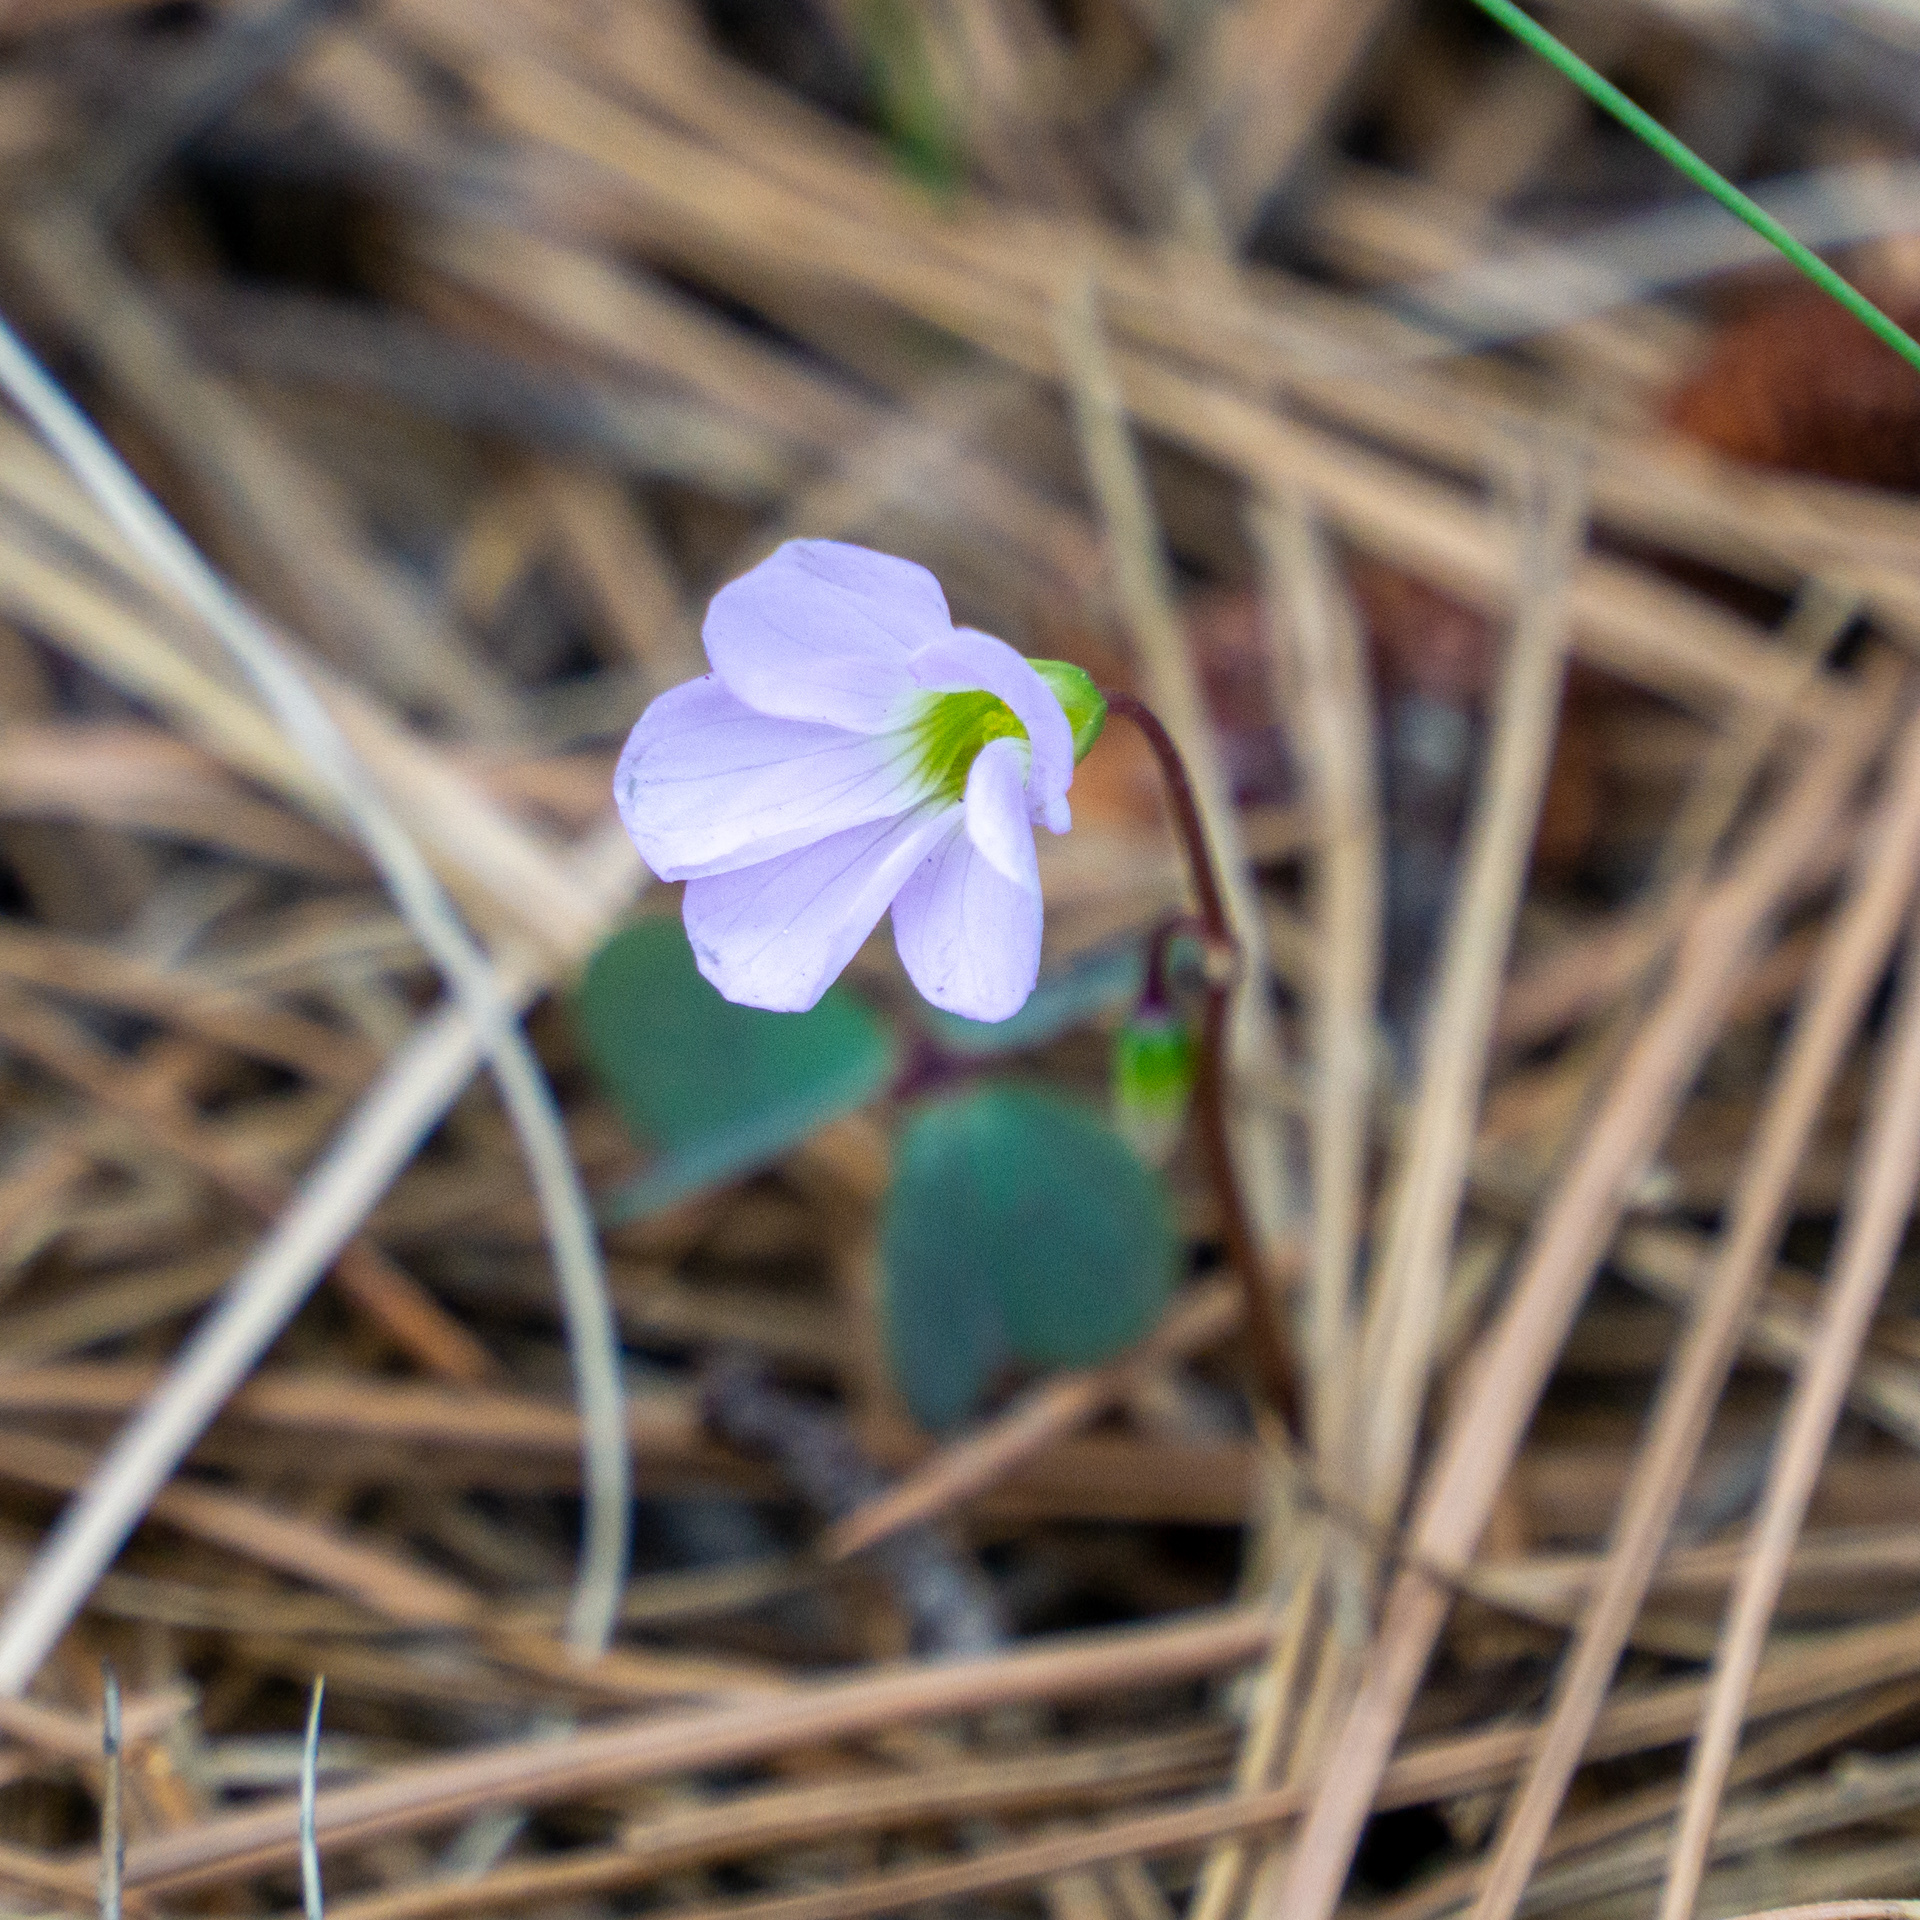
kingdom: Plantae
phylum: Tracheophyta
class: Magnoliopsida
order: Oxalidales
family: Oxalidaceae
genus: Oxalis
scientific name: Oxalis violacea
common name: Violet wood-sorrel
